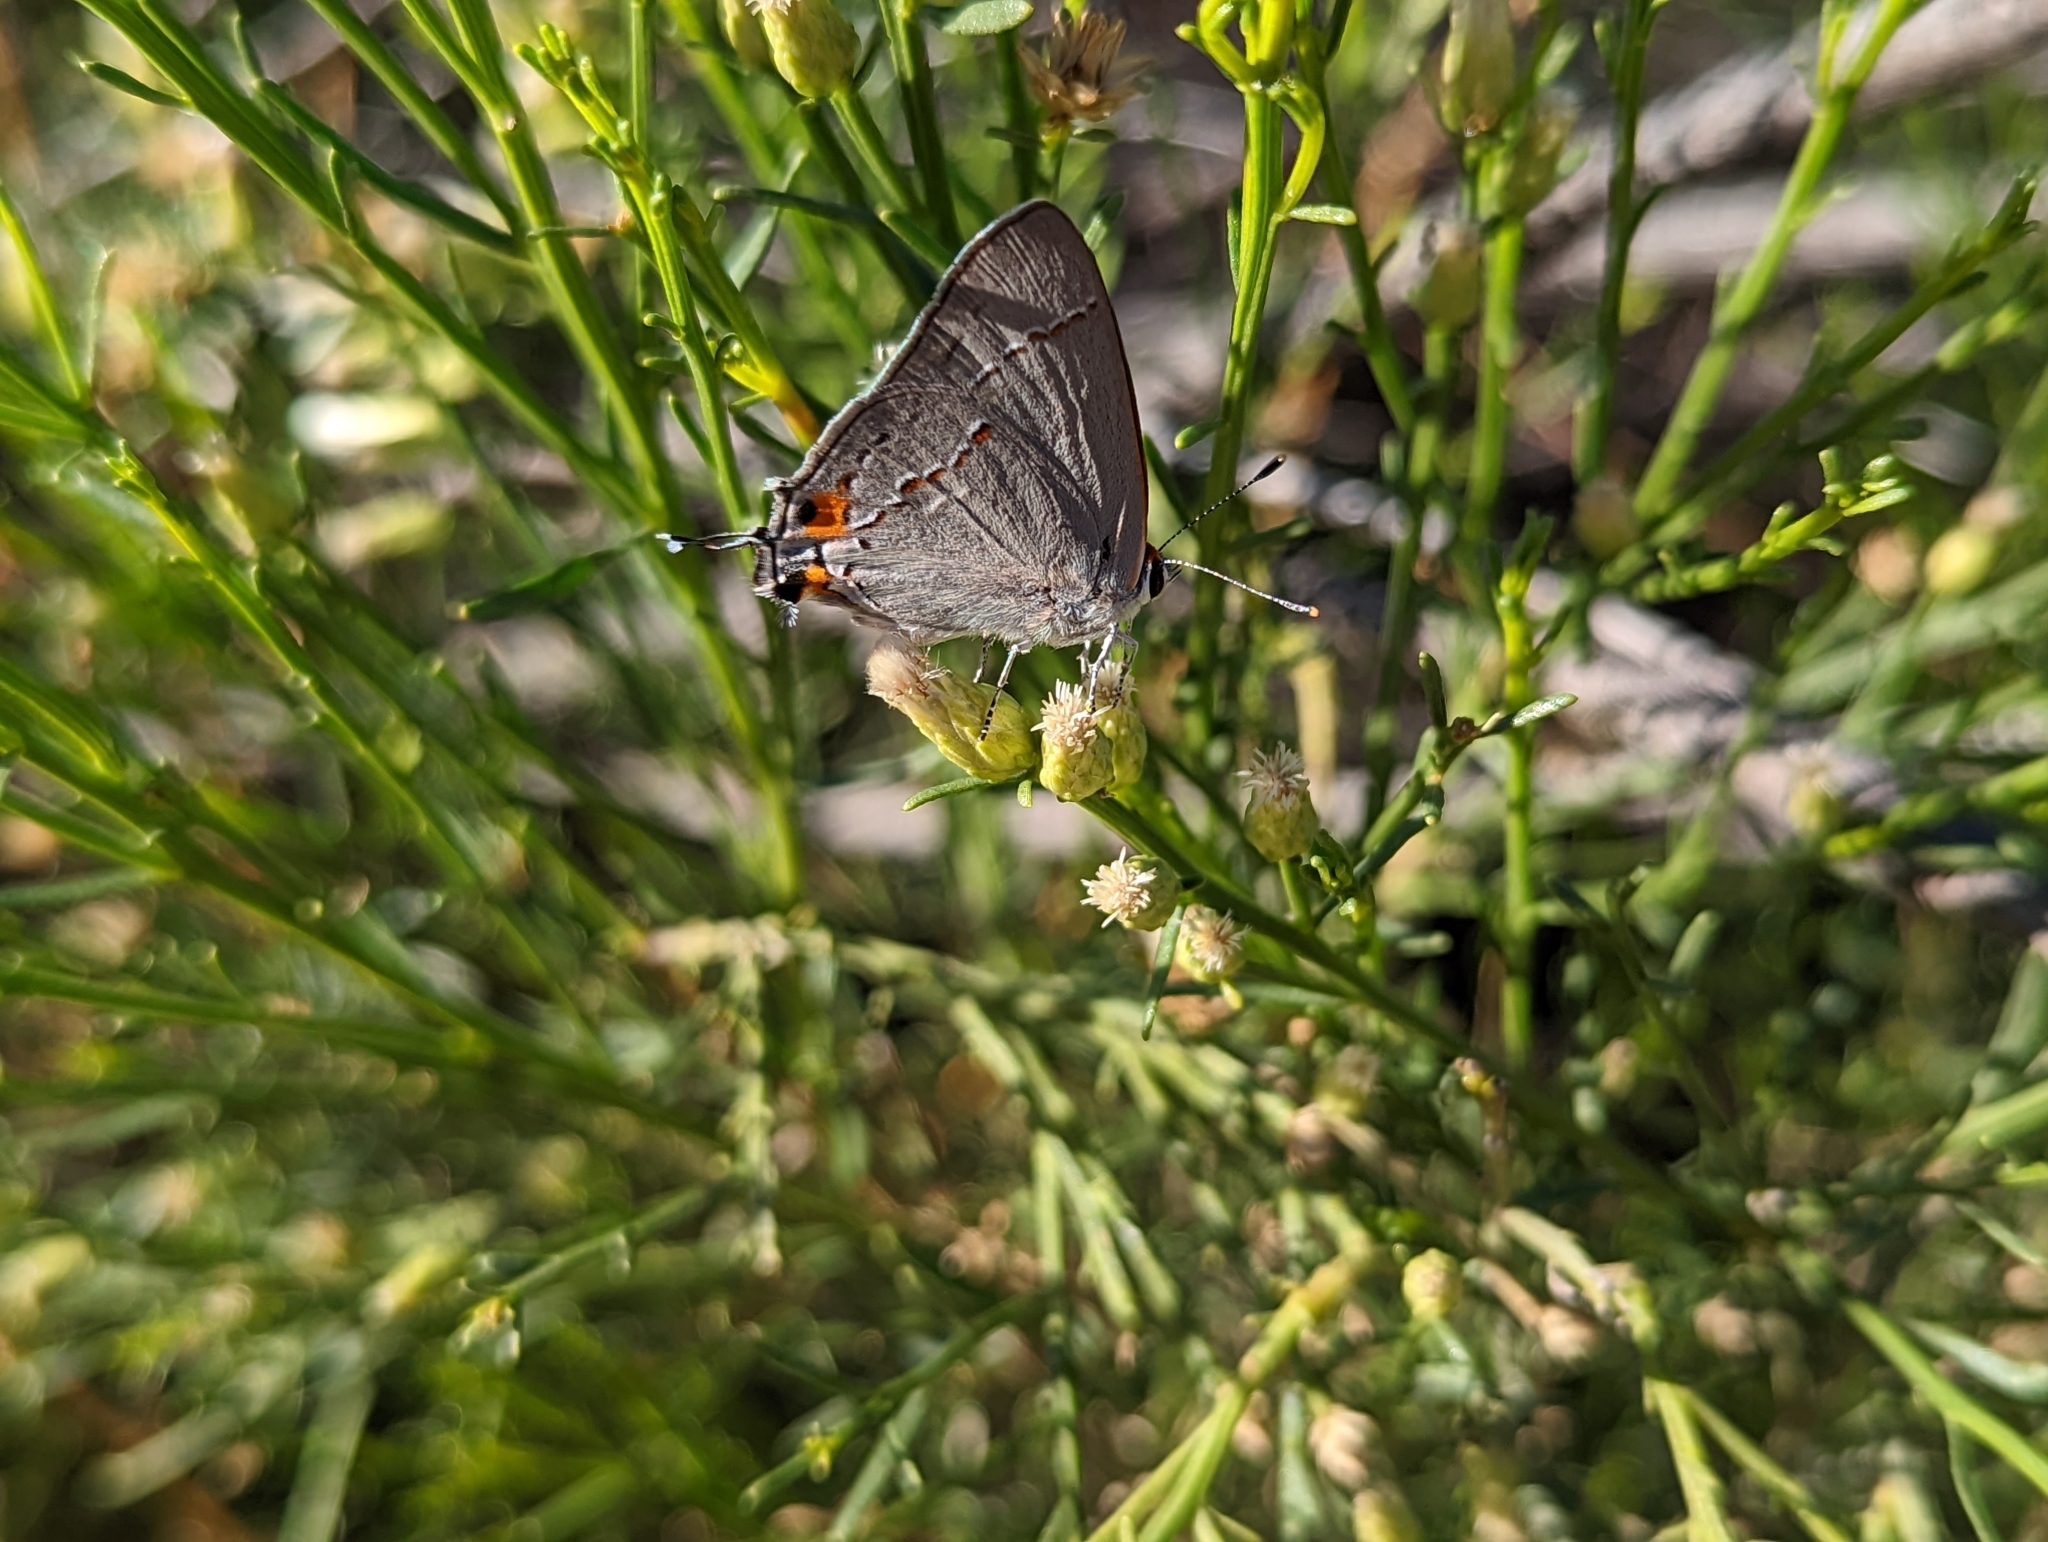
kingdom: Animalia
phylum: Arthropoda
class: Insecta
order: Lepidoptera
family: Lycaenidae
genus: Strymon
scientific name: Strymon melinus
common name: Gray hairstreak
